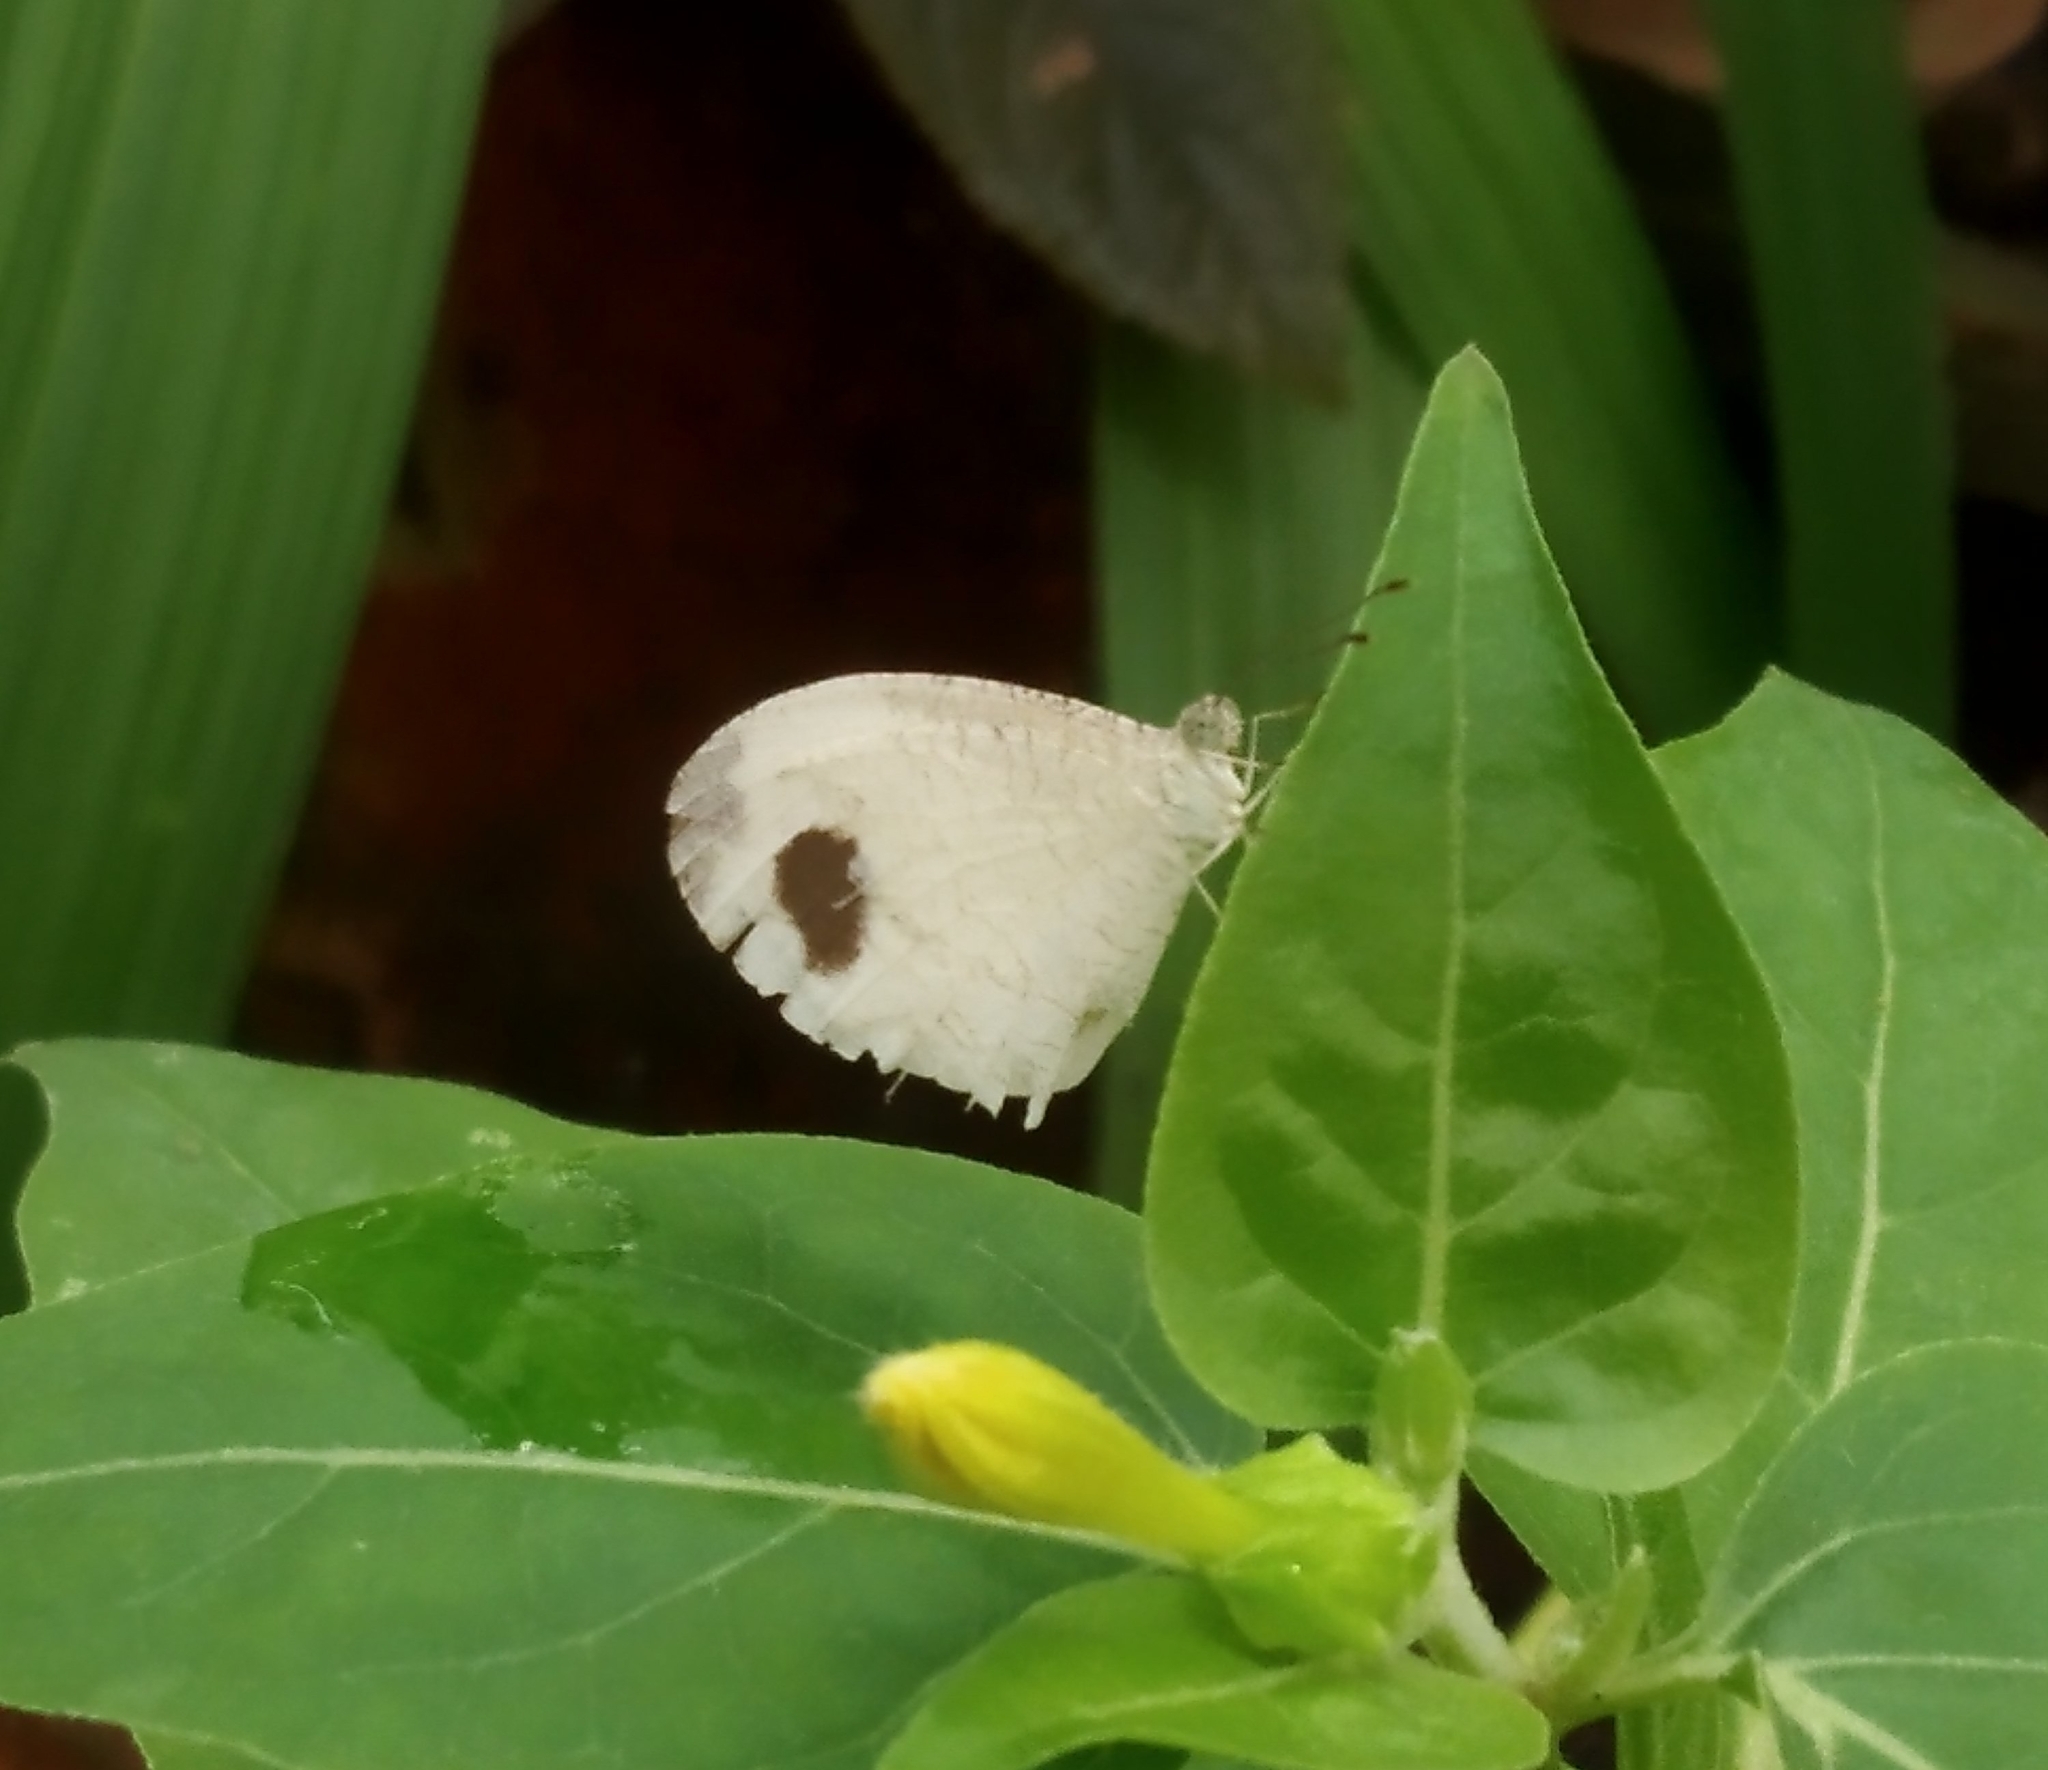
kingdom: Animalia
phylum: Arthropoda
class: Insecta
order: Lepidoptera
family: Pieridae
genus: Leptosia
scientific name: Leptosia nina
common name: Psyche
